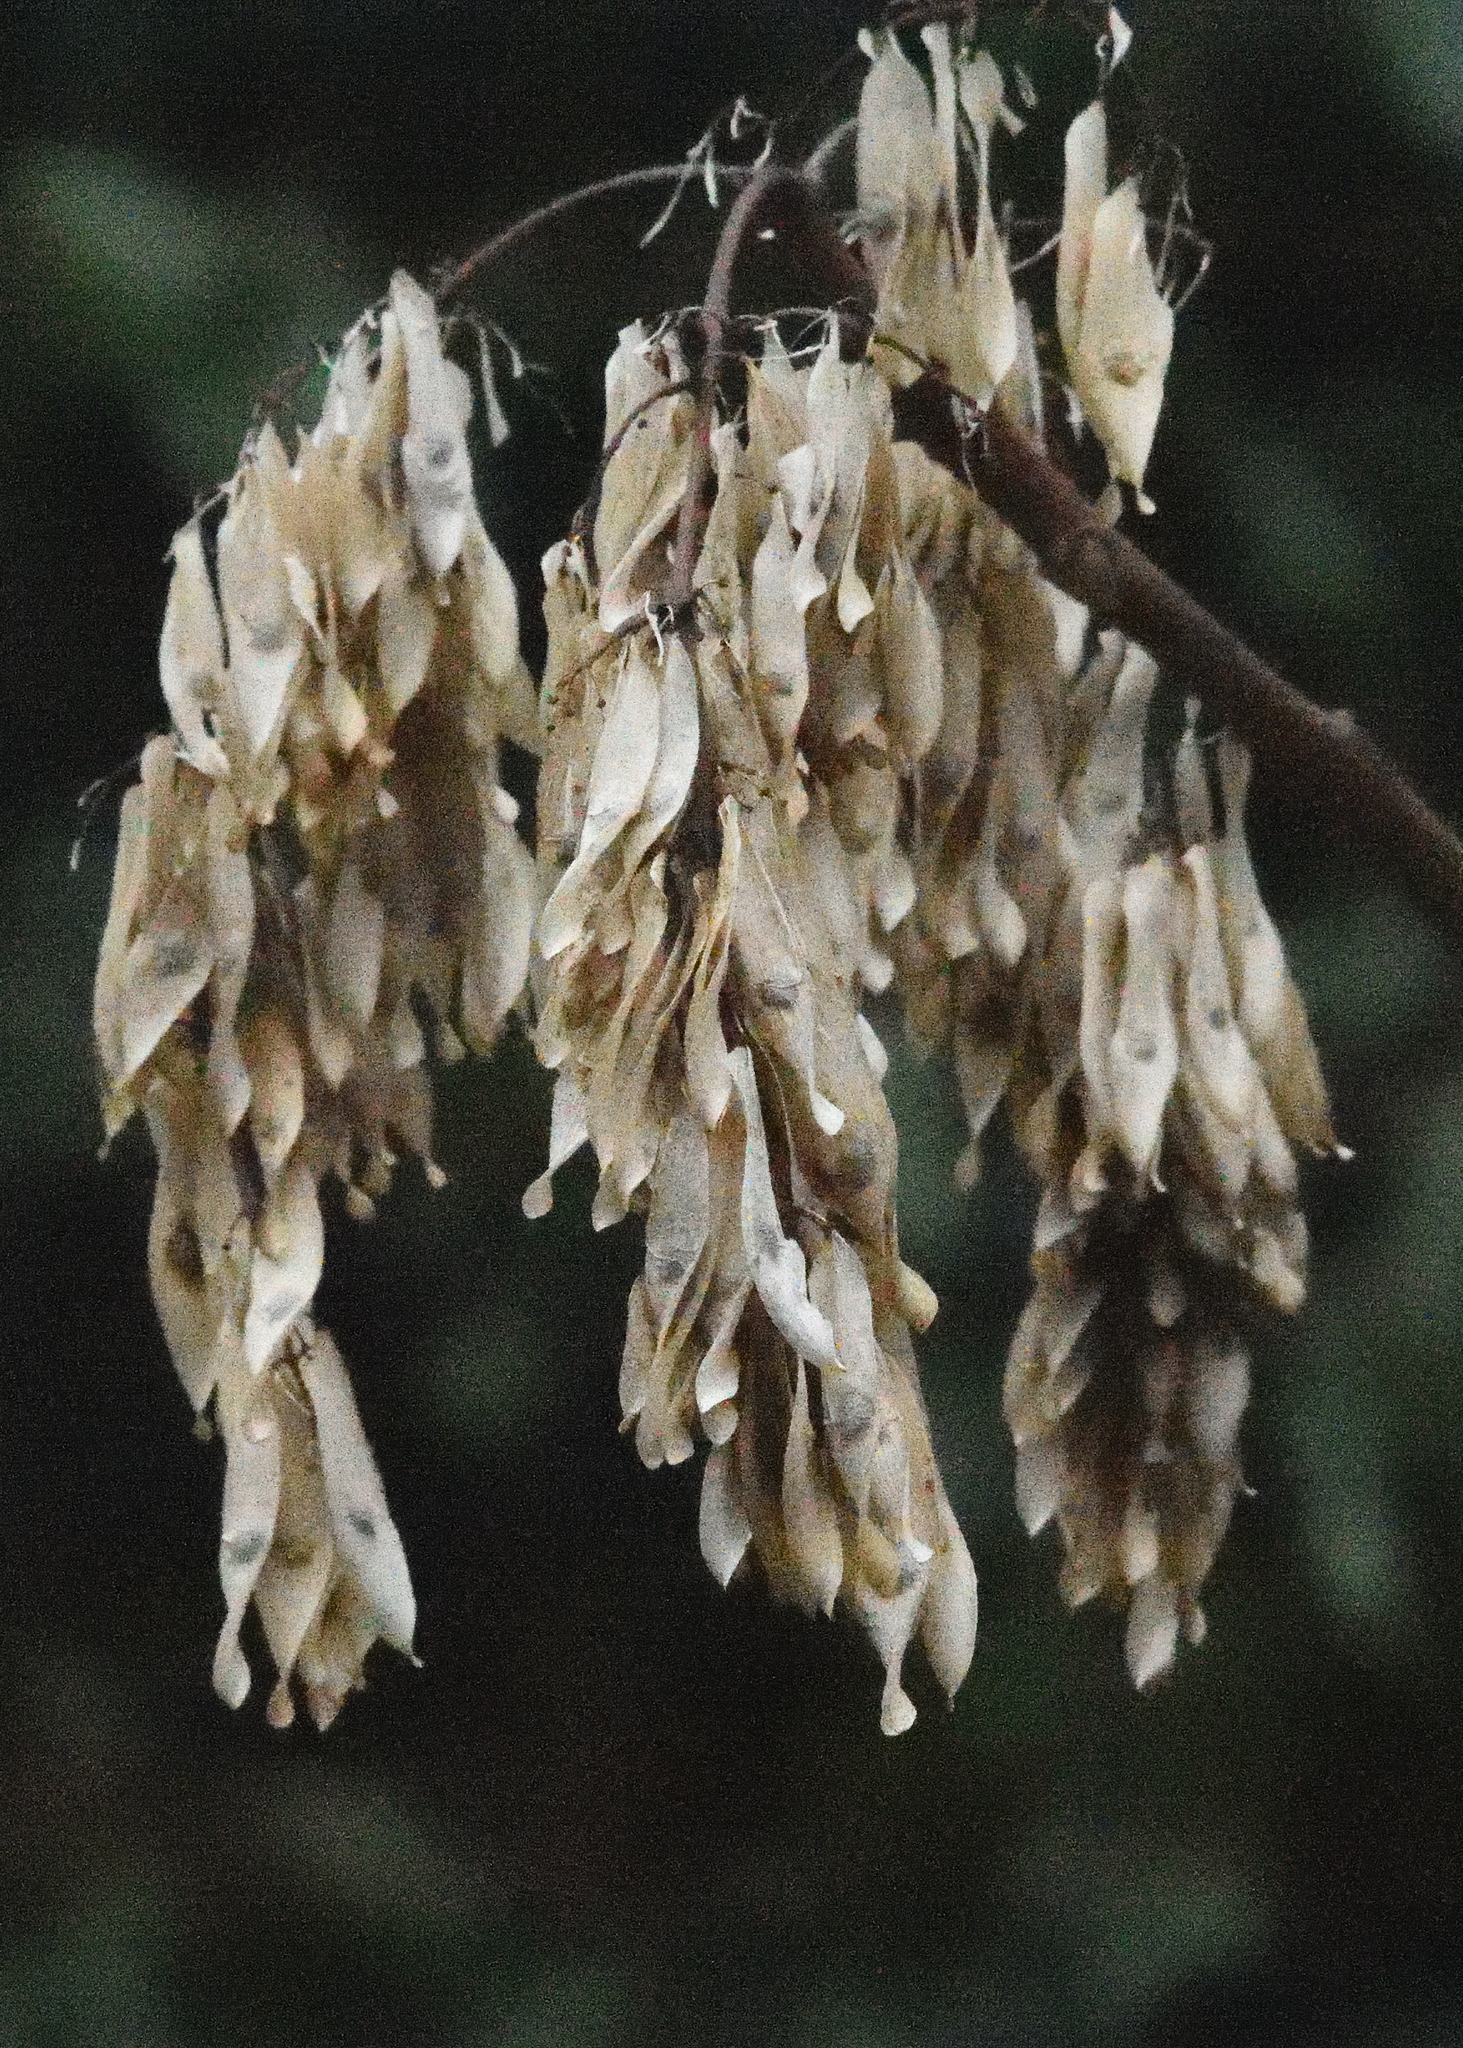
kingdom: Plantae
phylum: Tracheophyta
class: Magnoliopsida
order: Sapindales
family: Simaroubaceae
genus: Ailanthus
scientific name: Ailanthus altissima
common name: Tree-of-heaven
